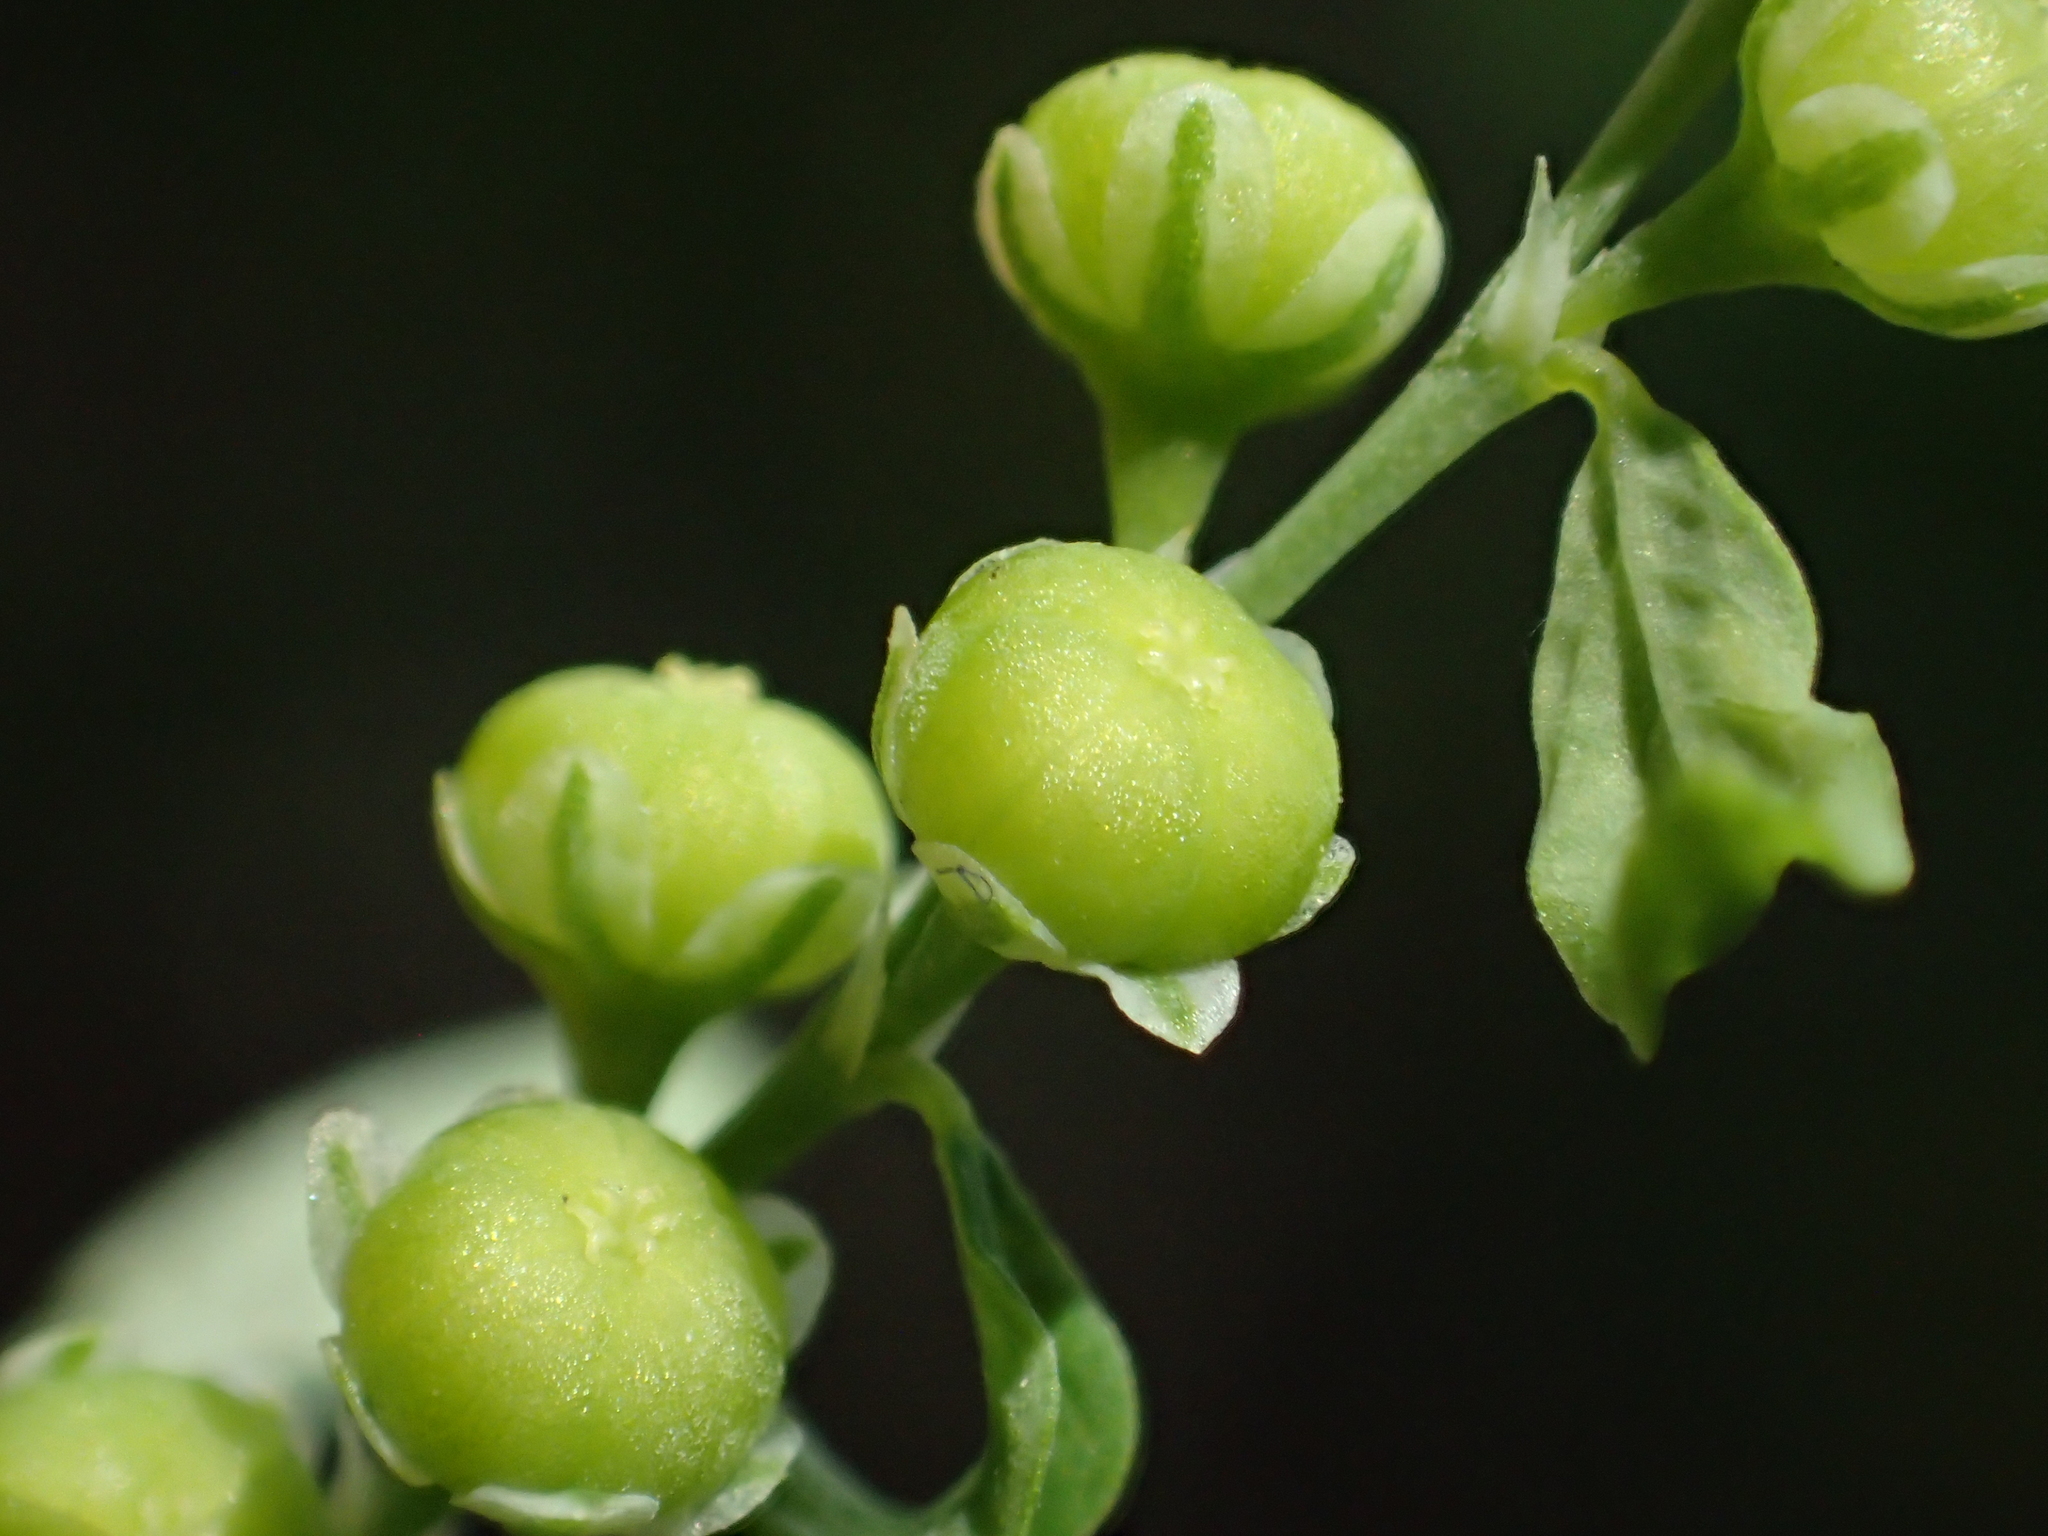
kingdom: Plantae
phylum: Tracheophyta
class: Magnoliopsida
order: Malpighiales
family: Phyllanthaceae
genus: Phyllanthus
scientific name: Phyllanthus debilis
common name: Niruri
